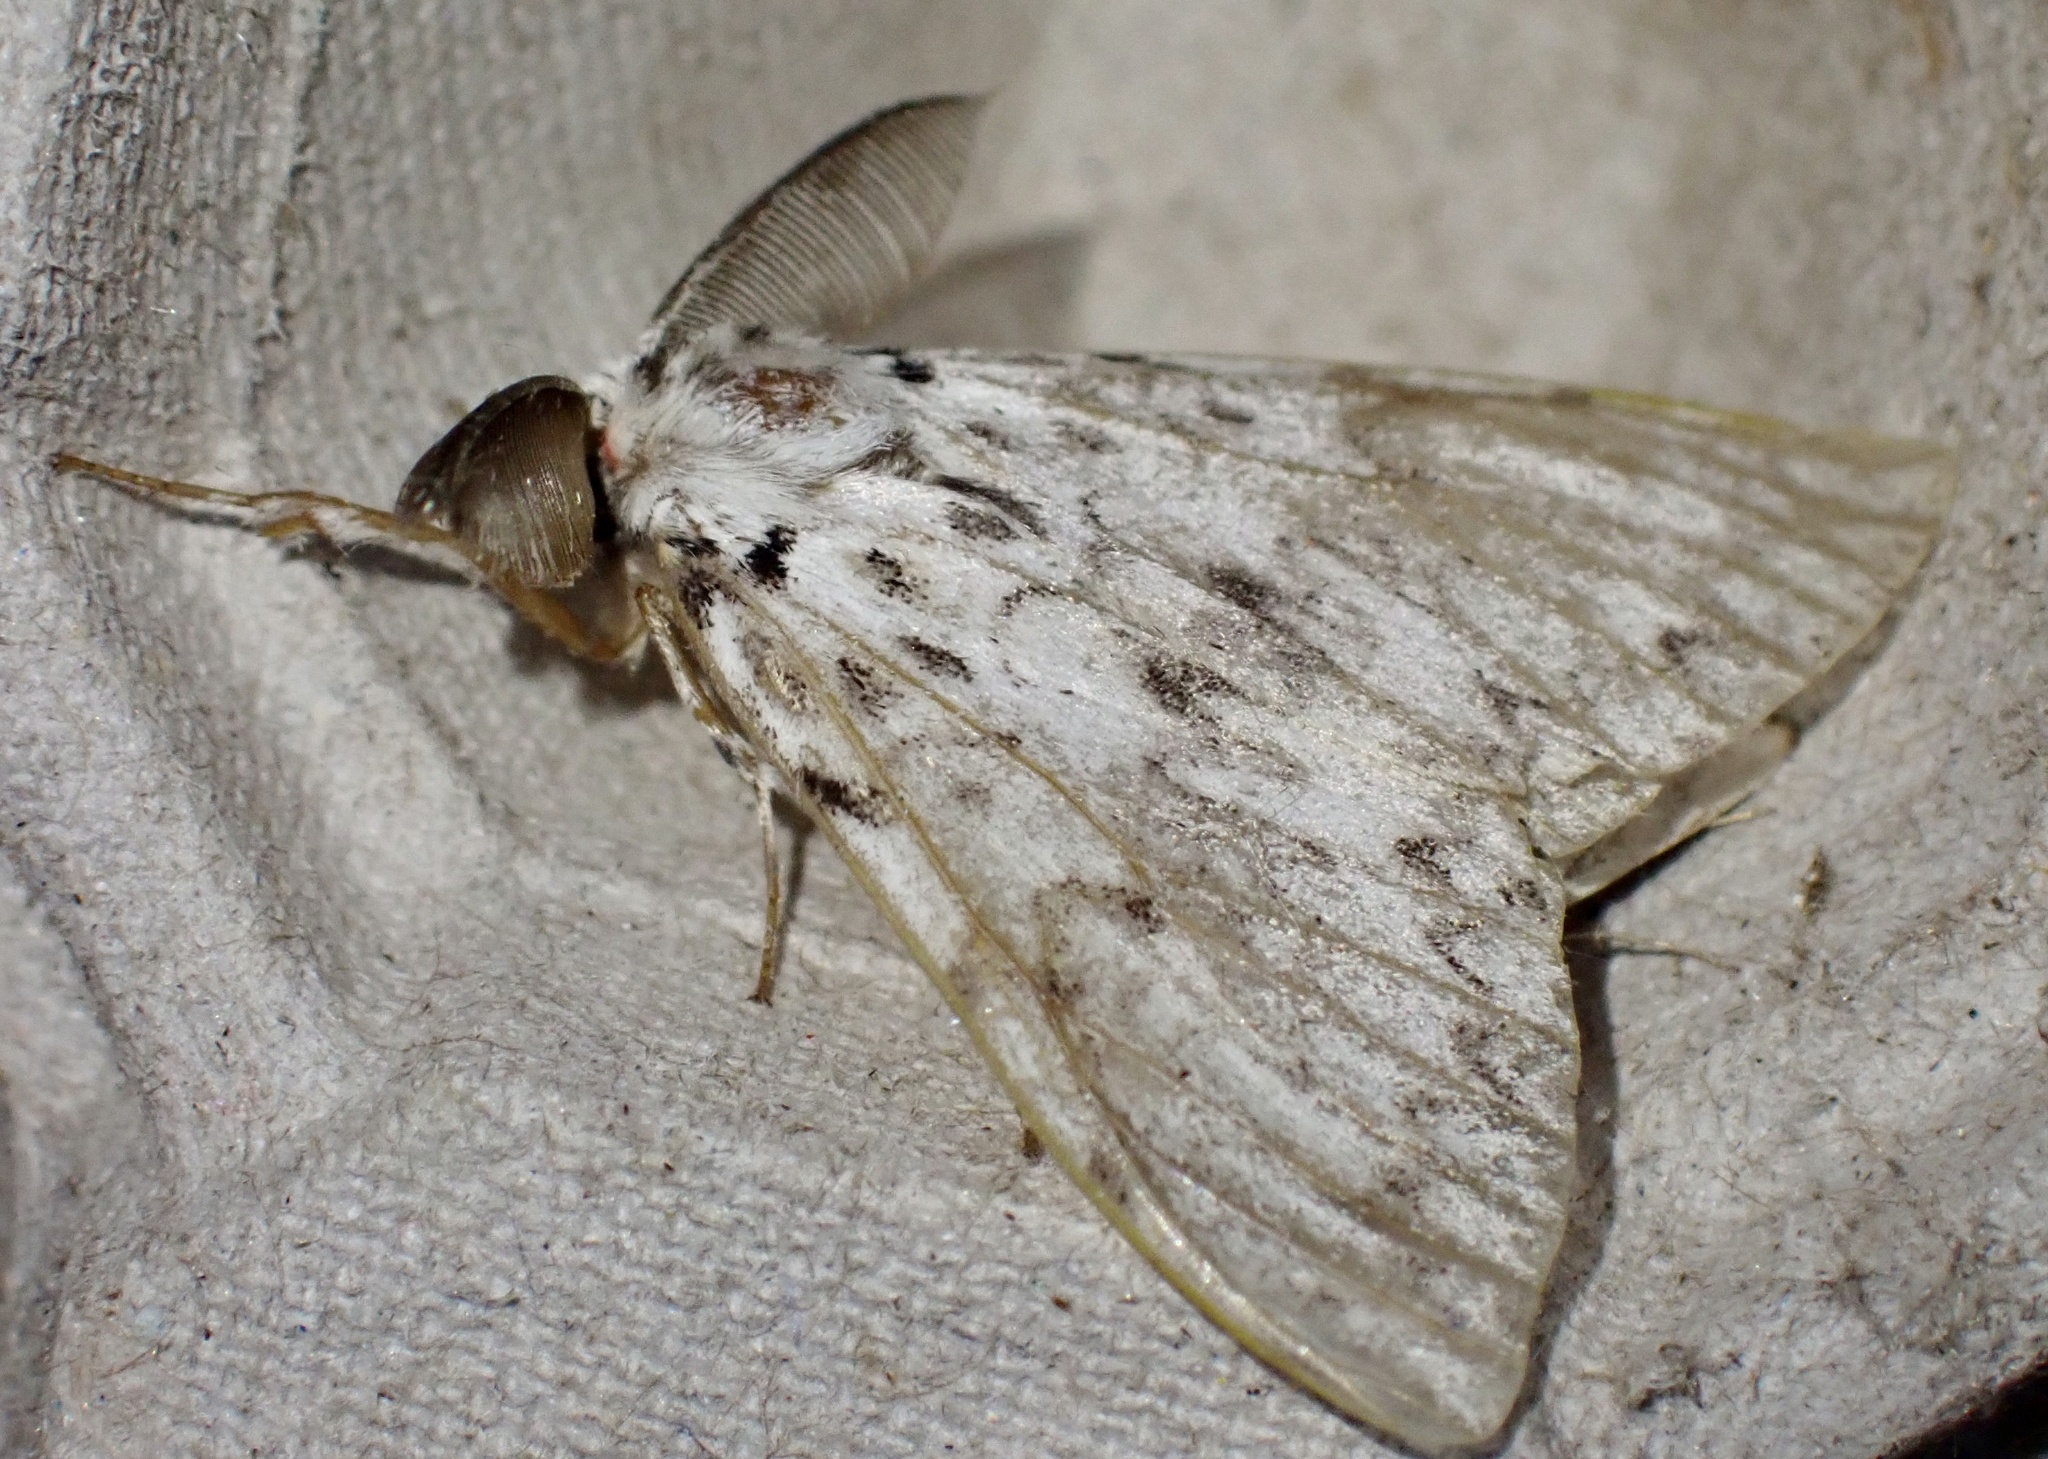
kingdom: Animalia
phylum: Arthropoda
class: Insecta
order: Lepidoptera
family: Erebidae
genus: Lymantria
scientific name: Lymantria monacha
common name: Black arches
